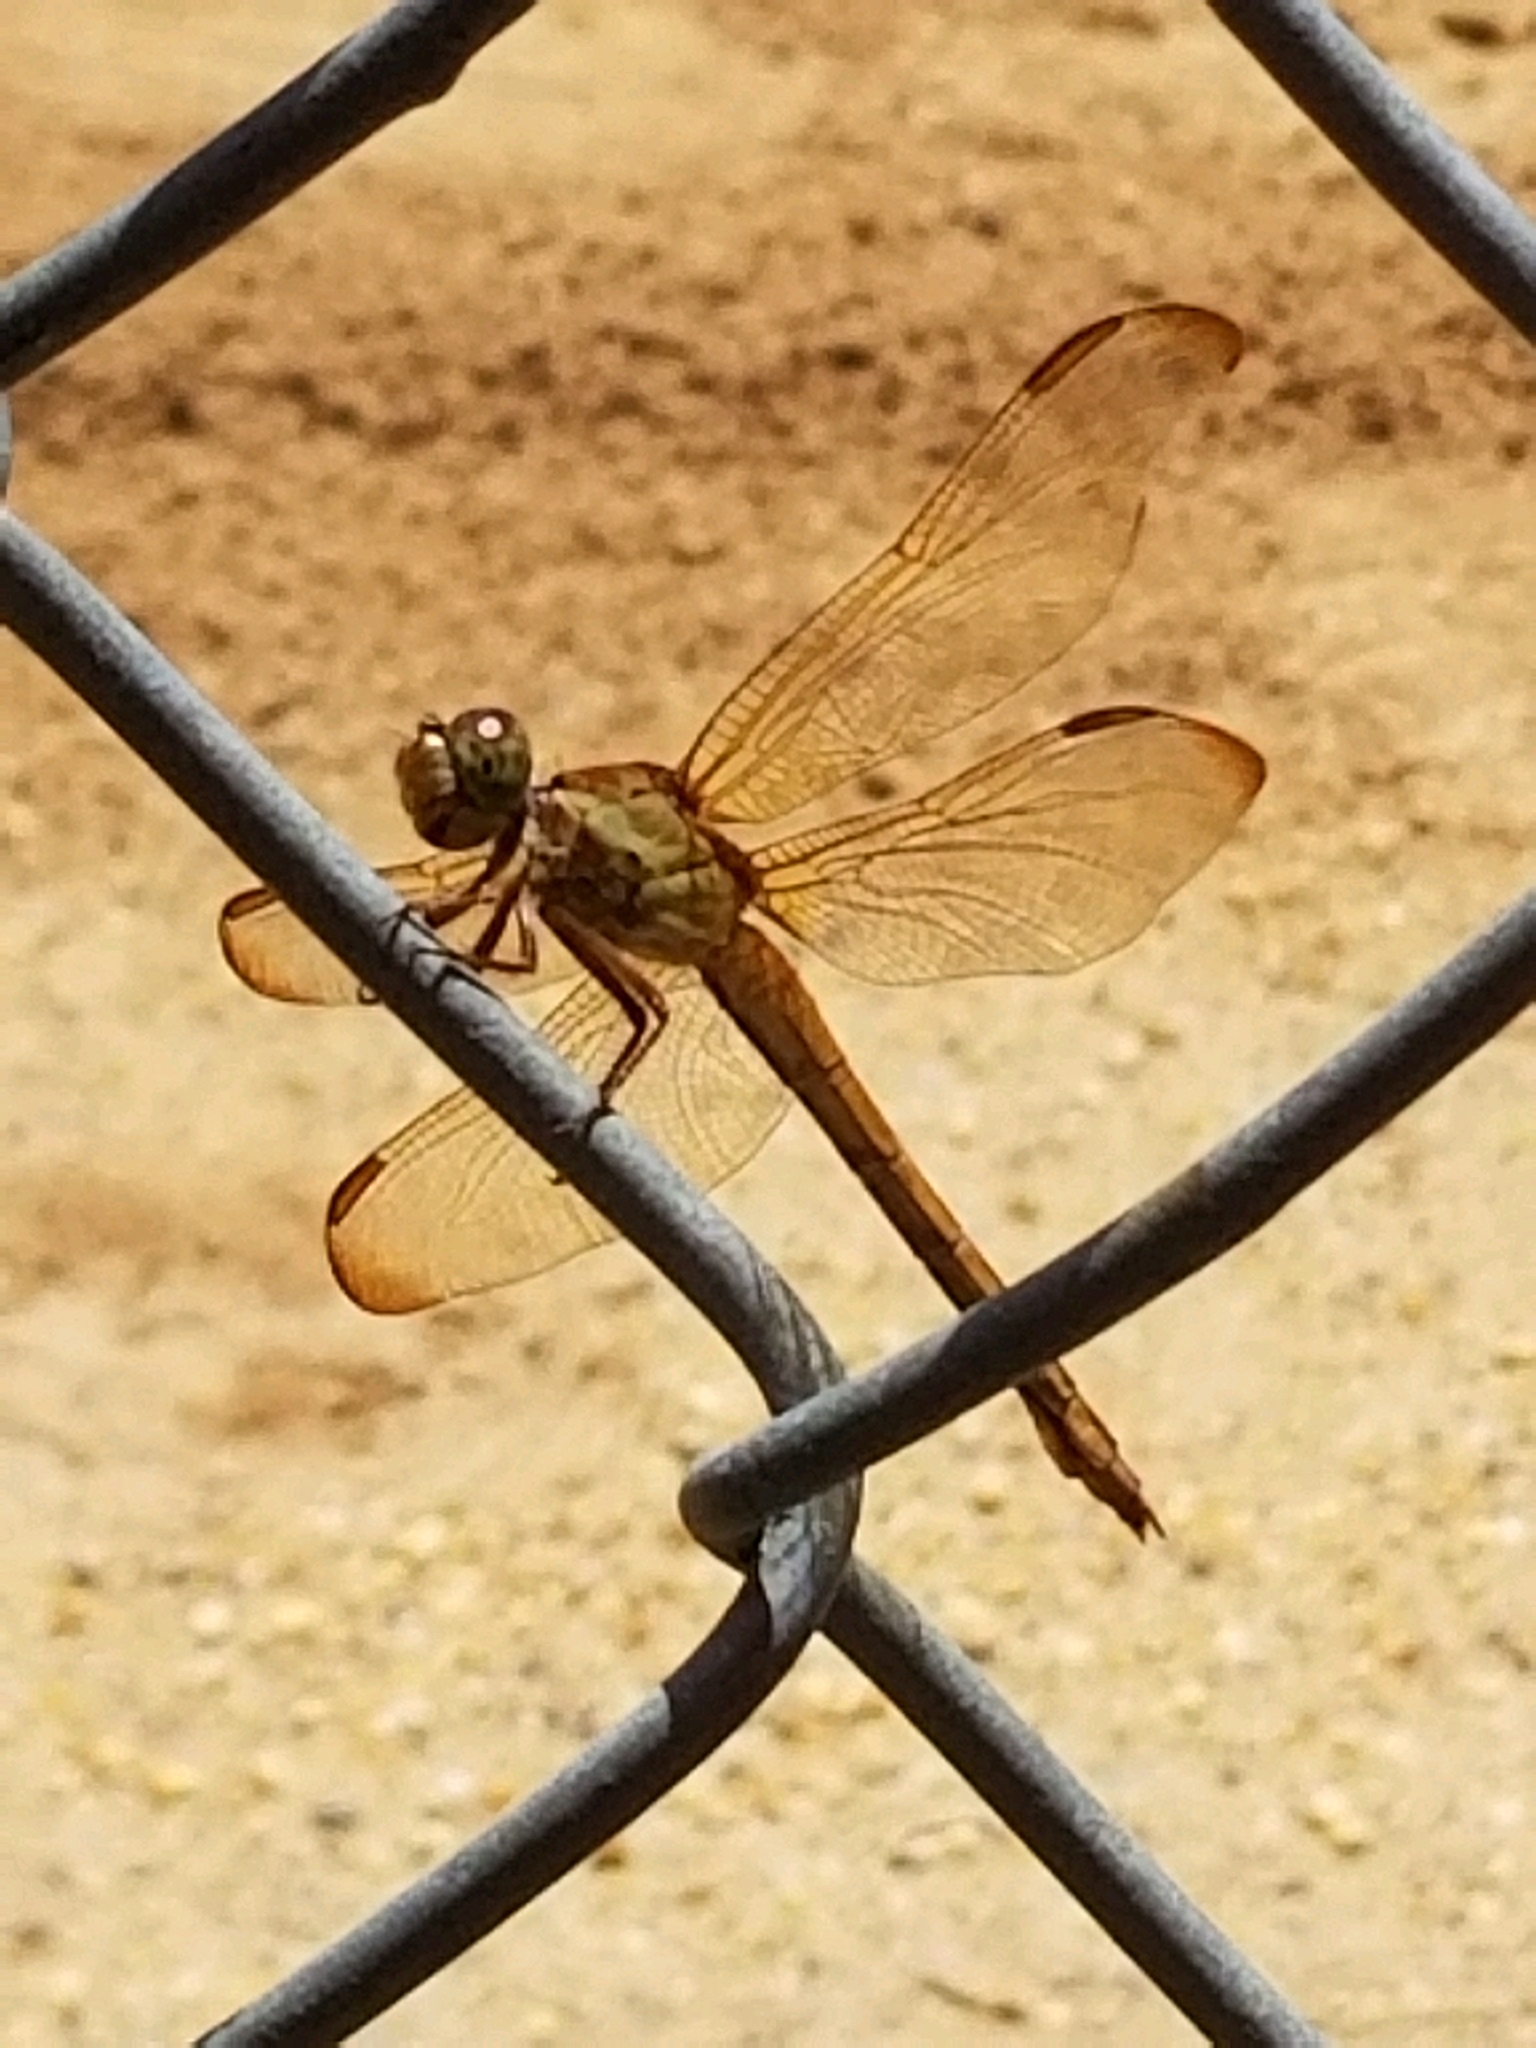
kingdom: Animalia
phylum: Arthropoda
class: Insecta
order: Odonata
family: Libellulidae
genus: Libellula
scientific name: Libellula needhami
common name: Needham's skimmer
